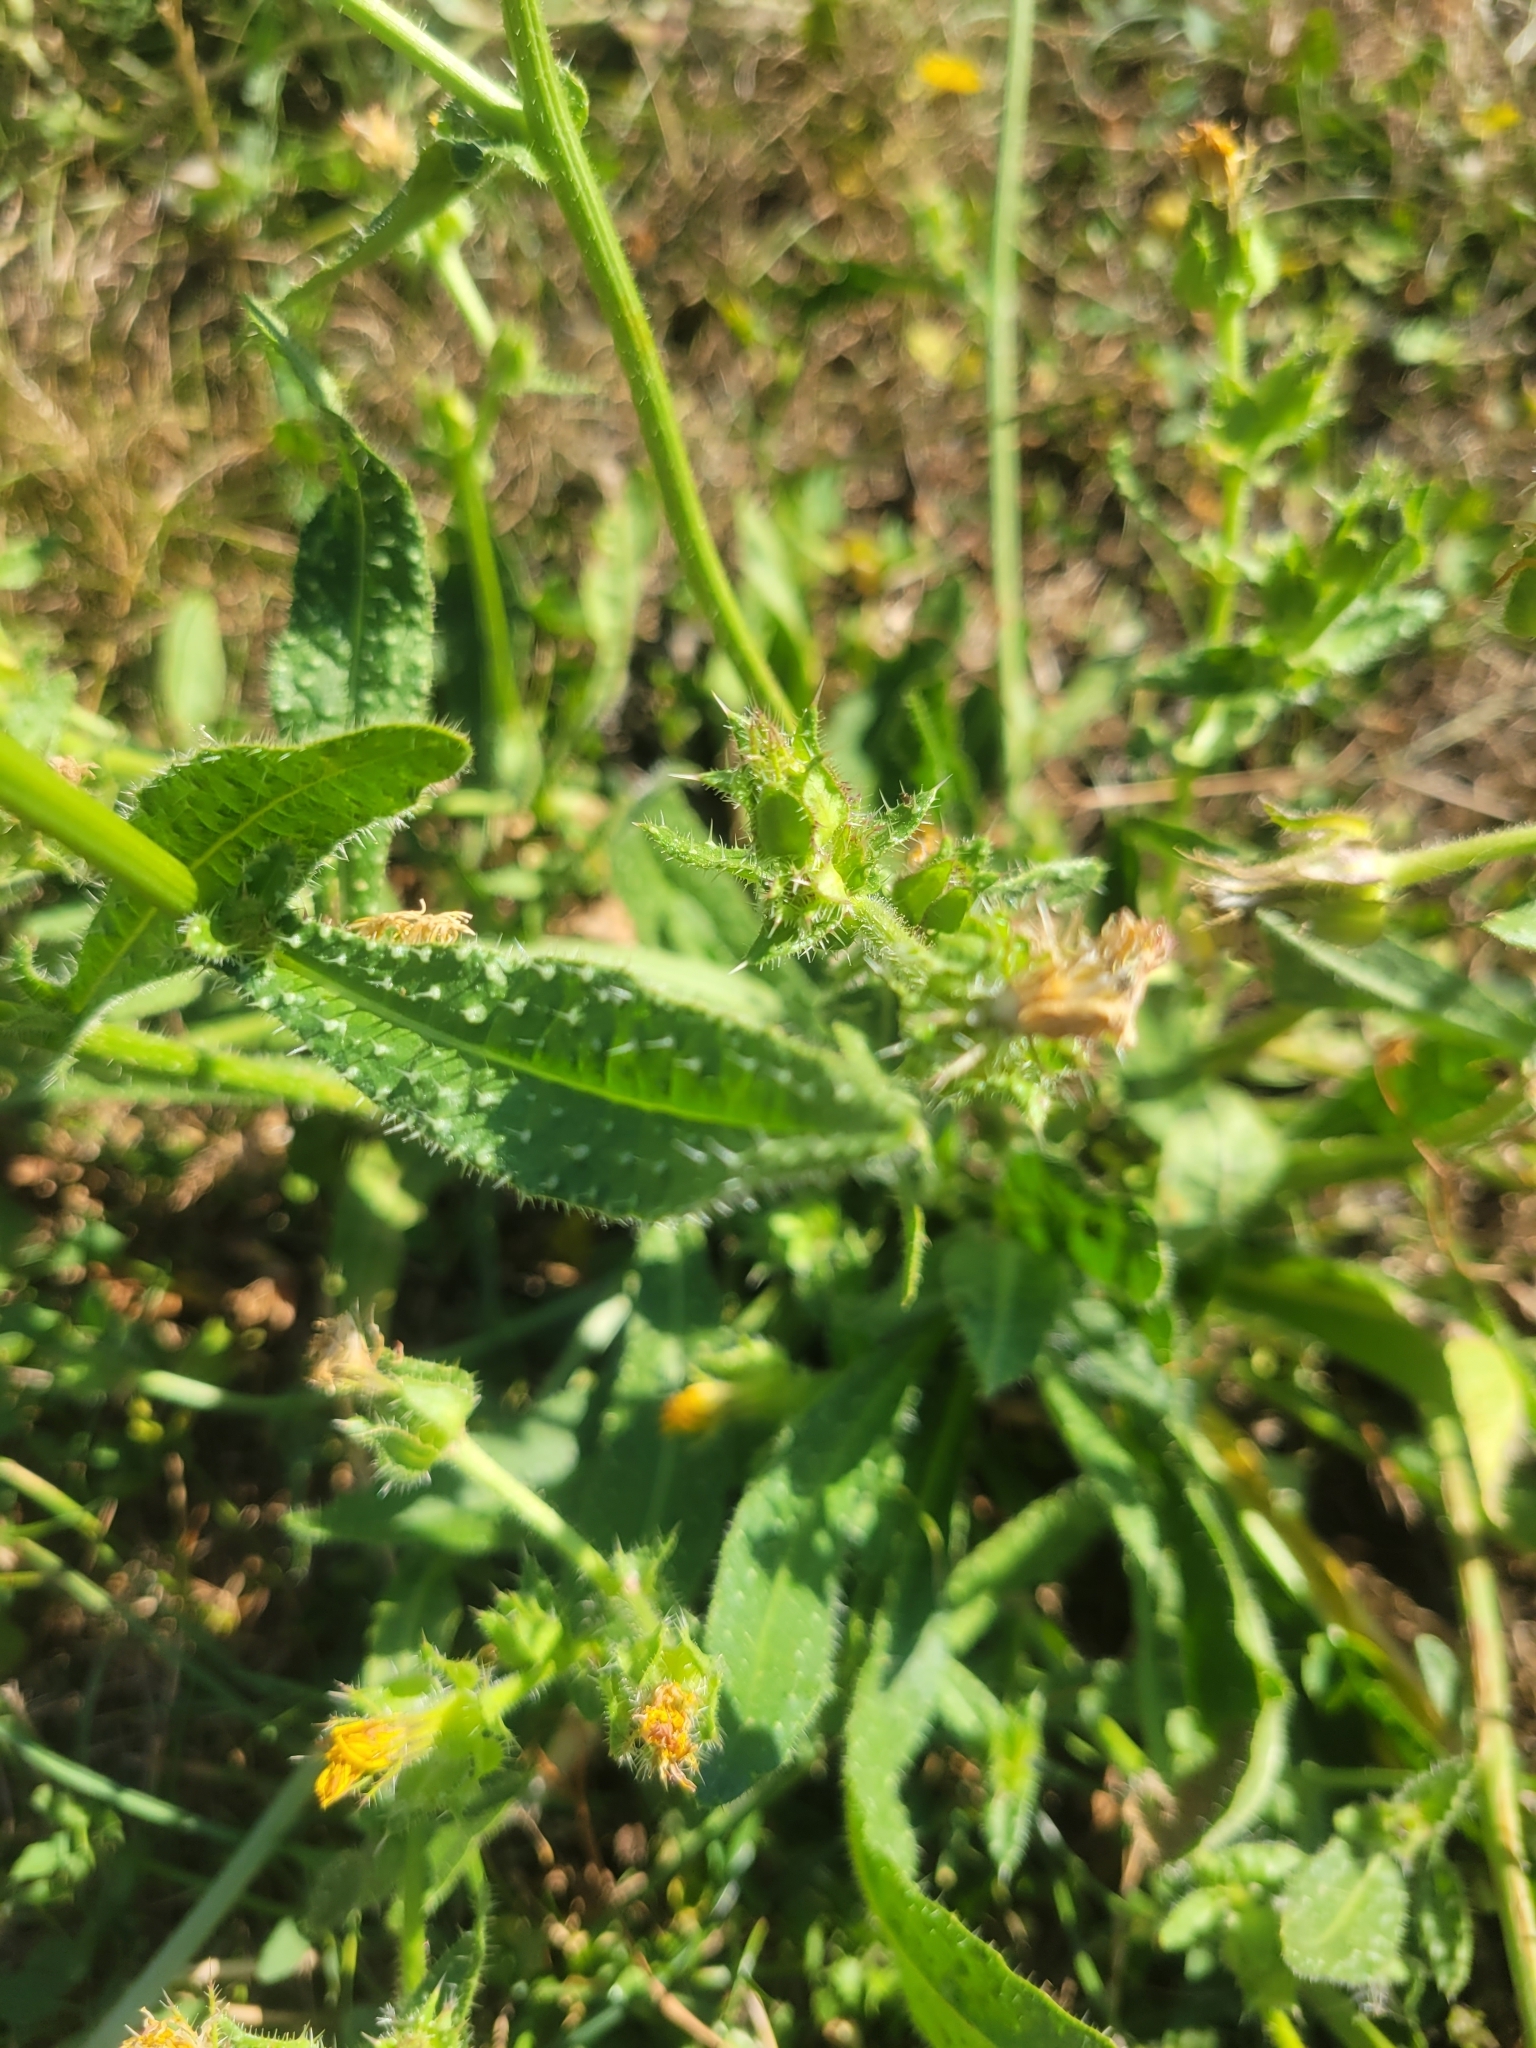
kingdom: Plantae
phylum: Tracheophyta
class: Magnoliopsida
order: Asterales
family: Asteraceae
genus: Helminthotheca
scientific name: Helminthotheca echioides
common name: Ox-tongue
